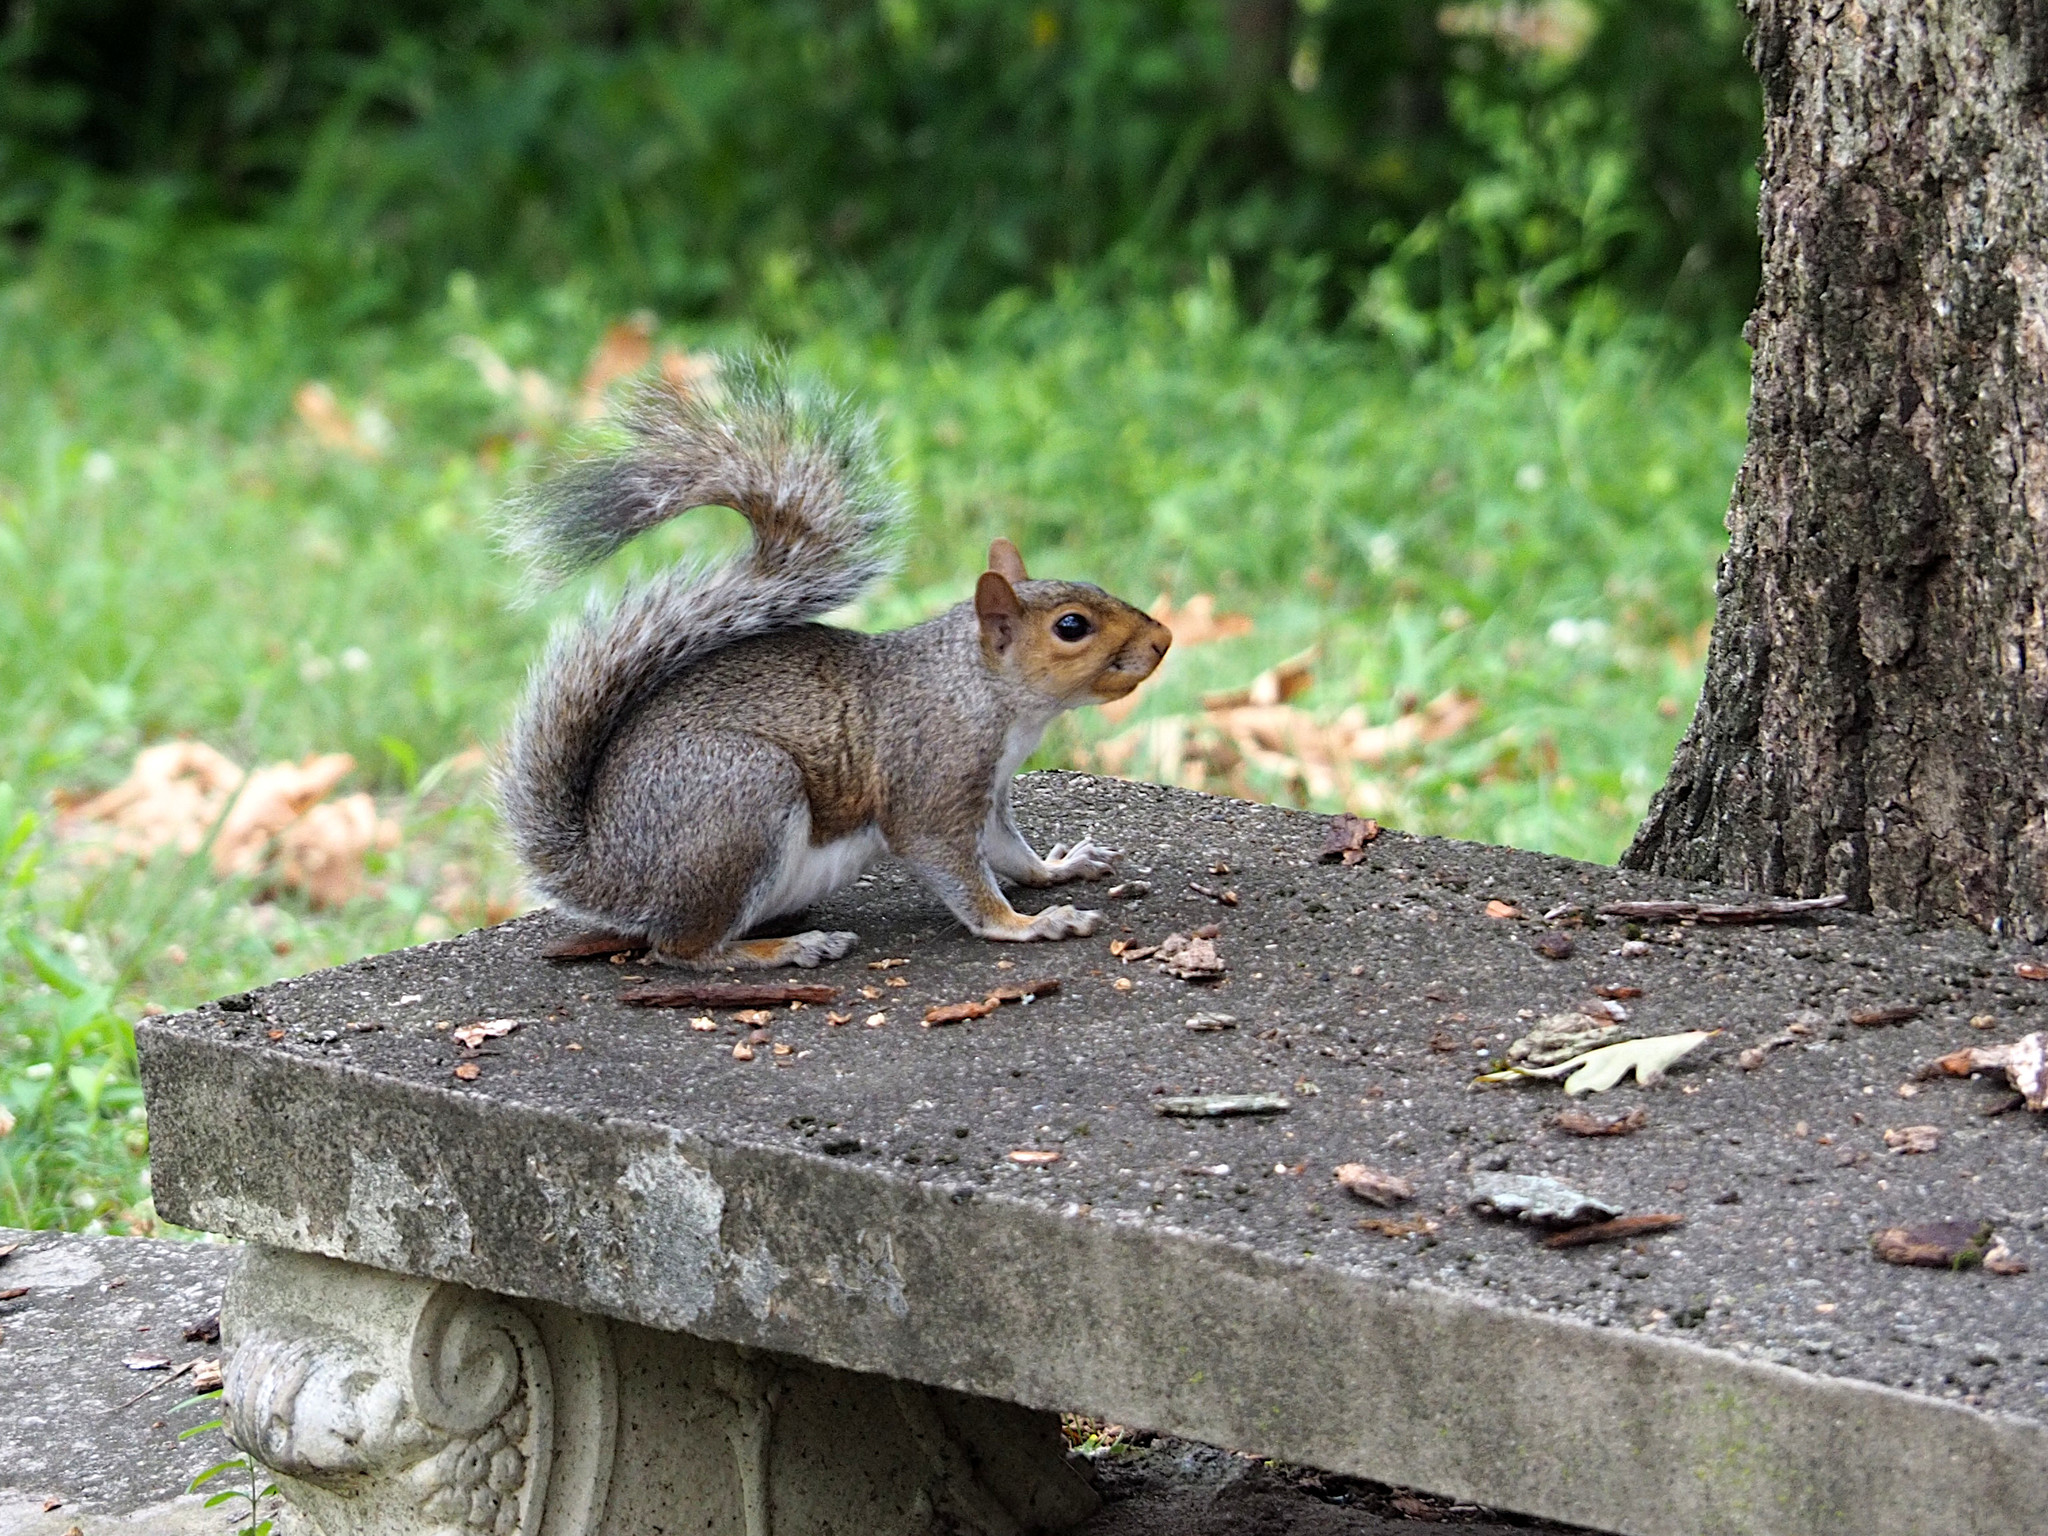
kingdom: Animalia
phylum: Chordata
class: Mammalia
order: Rodentia
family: Sciuridae
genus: Sciurus
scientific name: Sciurus carolinensis
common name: Eastern gray squirrel
